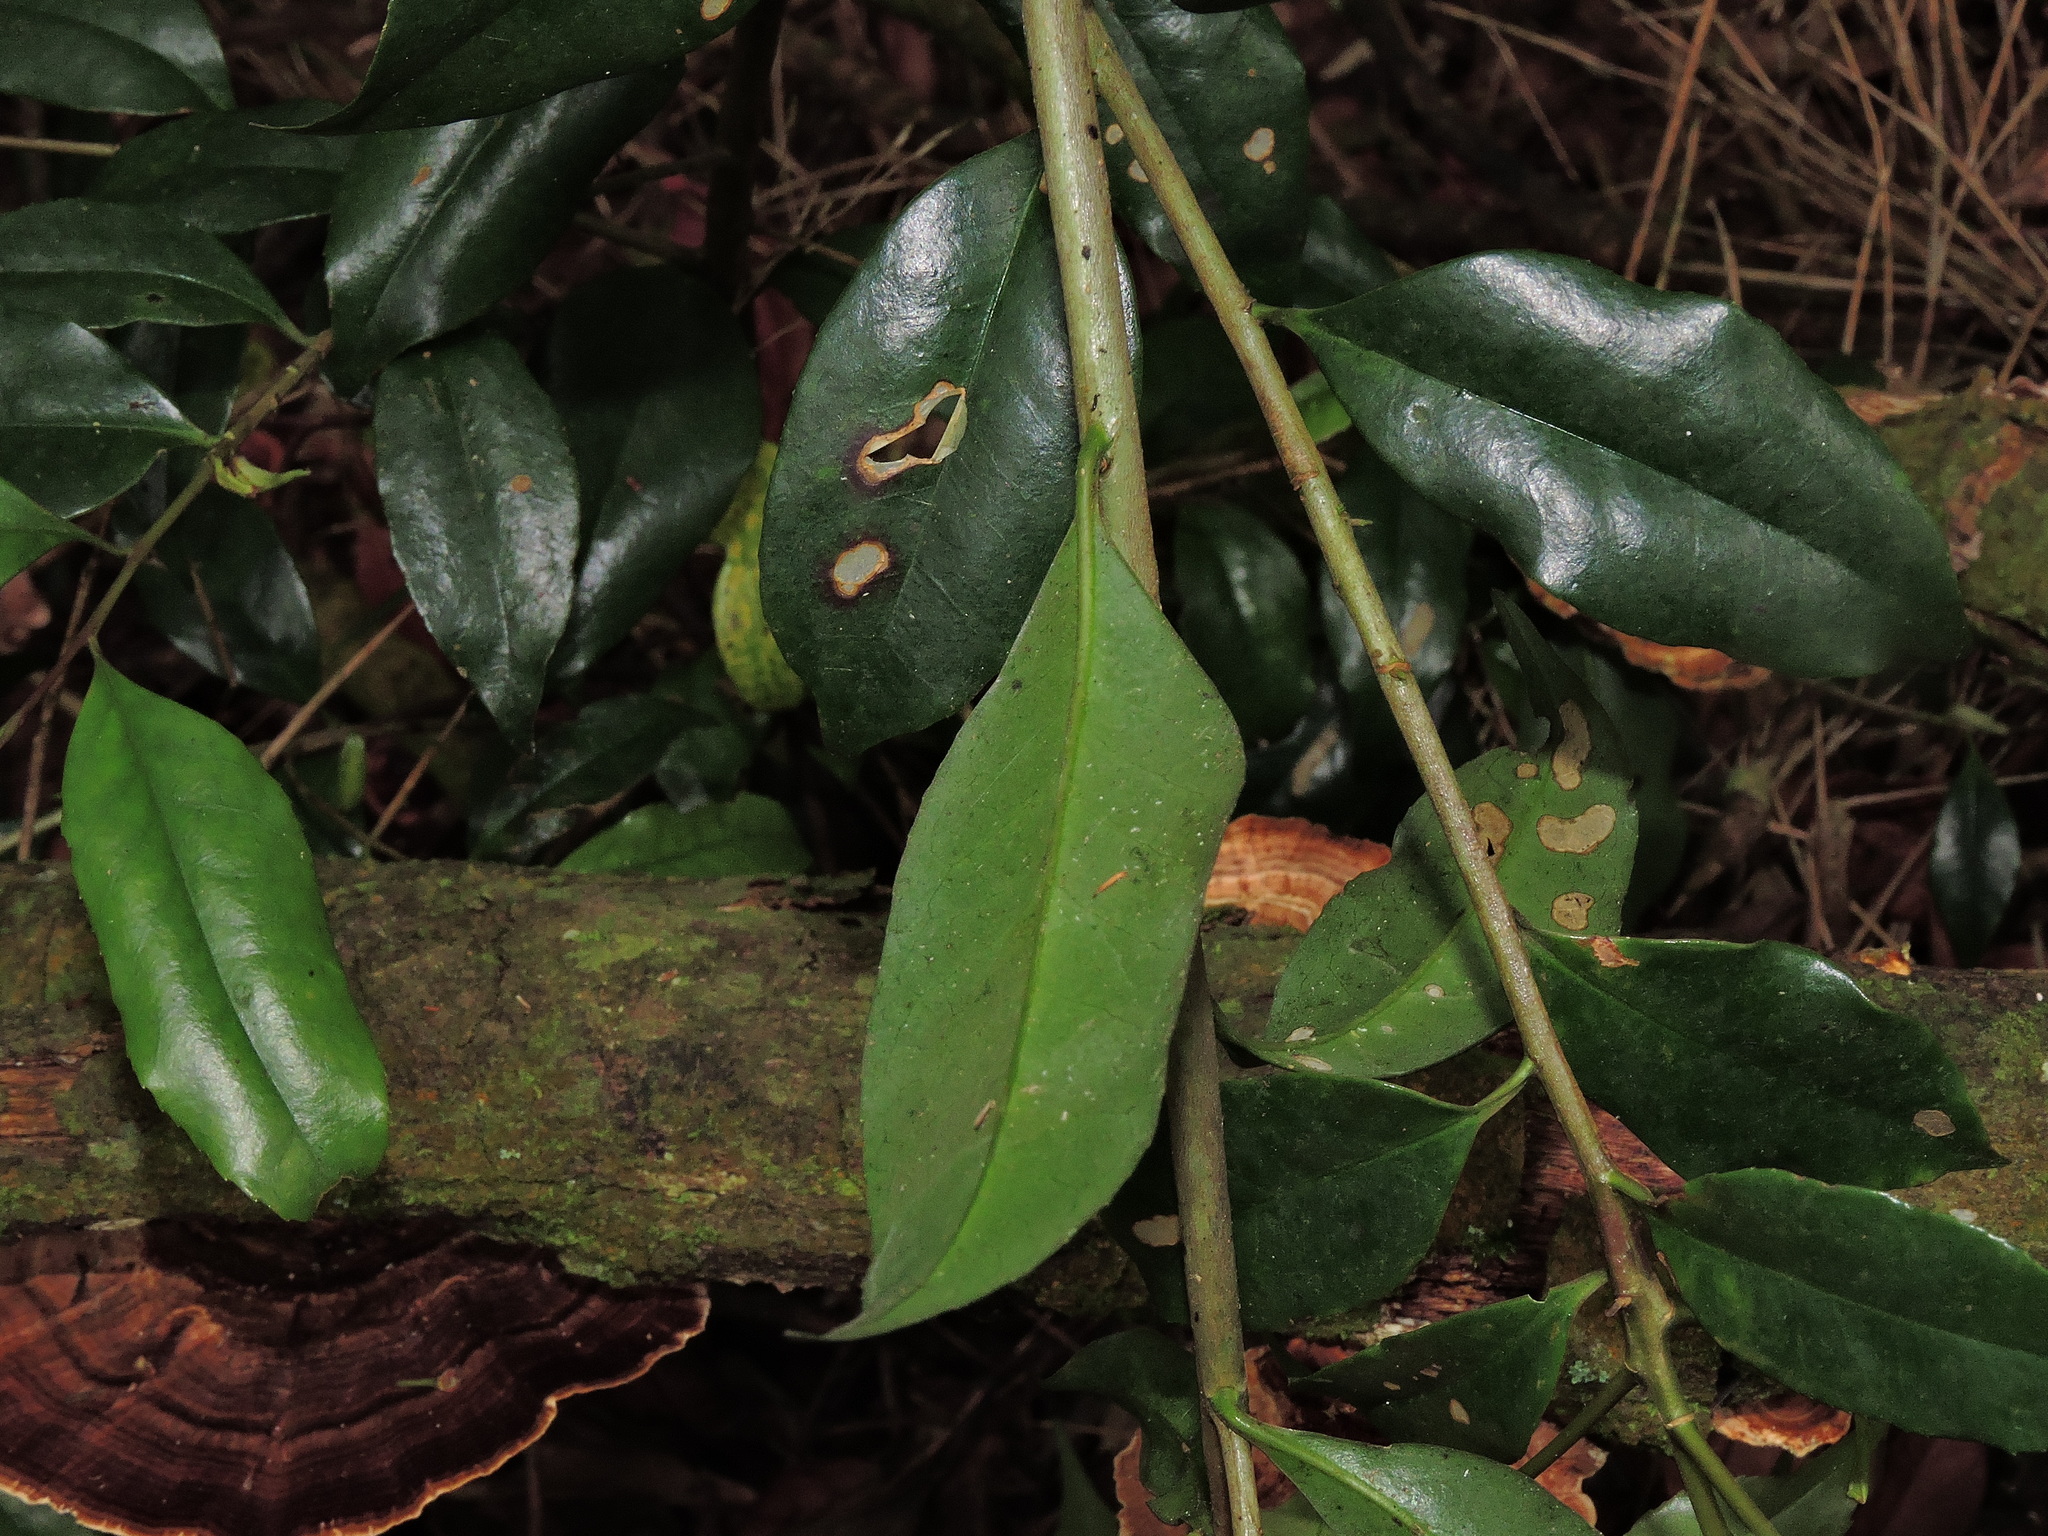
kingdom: Plantae
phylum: Tracheophyta
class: Magnoliopsida
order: Ericales
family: Symplocaceae
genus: Symplocos
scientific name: Symplocos heishanensis
